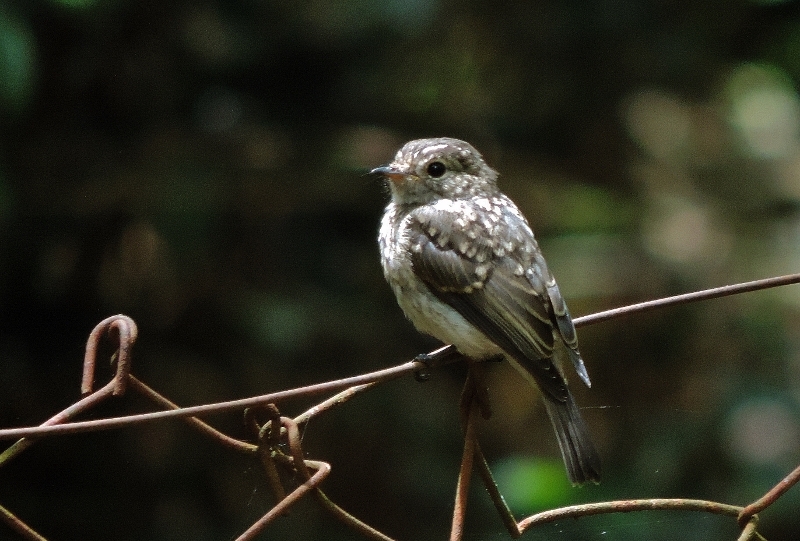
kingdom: Animalia
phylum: Chordata
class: Aves
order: Passeriformes
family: Muscicapidae
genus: Muscicapa
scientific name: Muscicapa adusta
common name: African dusky flycatcher
